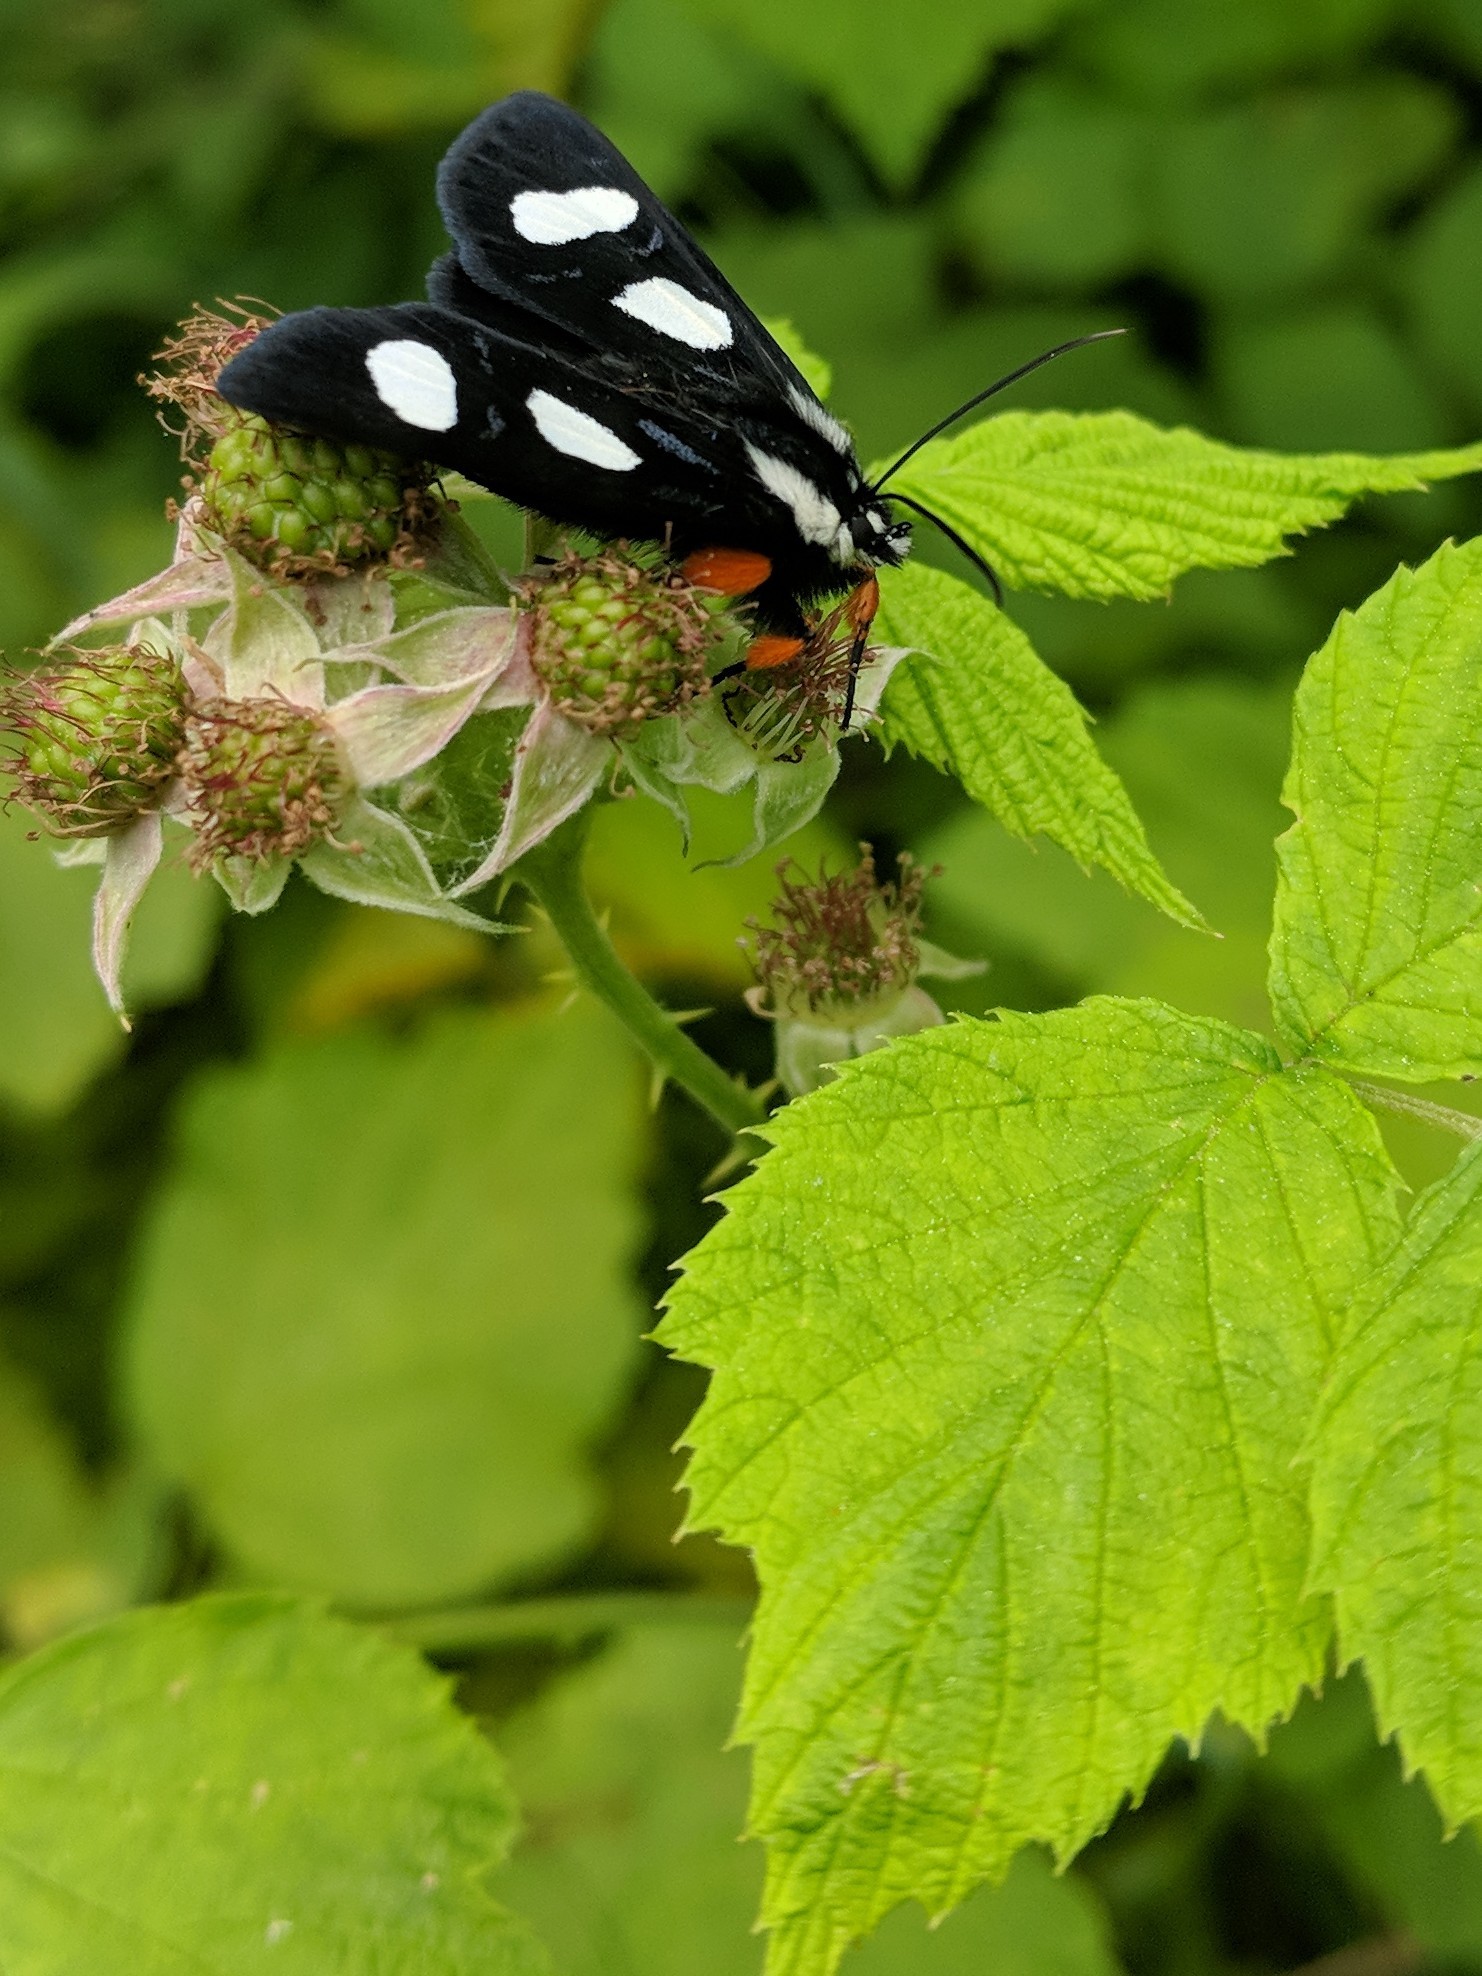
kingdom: Animalia
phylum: Arthropoda
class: Insecta
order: Lepidoptera
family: Noctuidae
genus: Alypia
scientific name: Alypia octomaculata
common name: Eight-spotted forester
